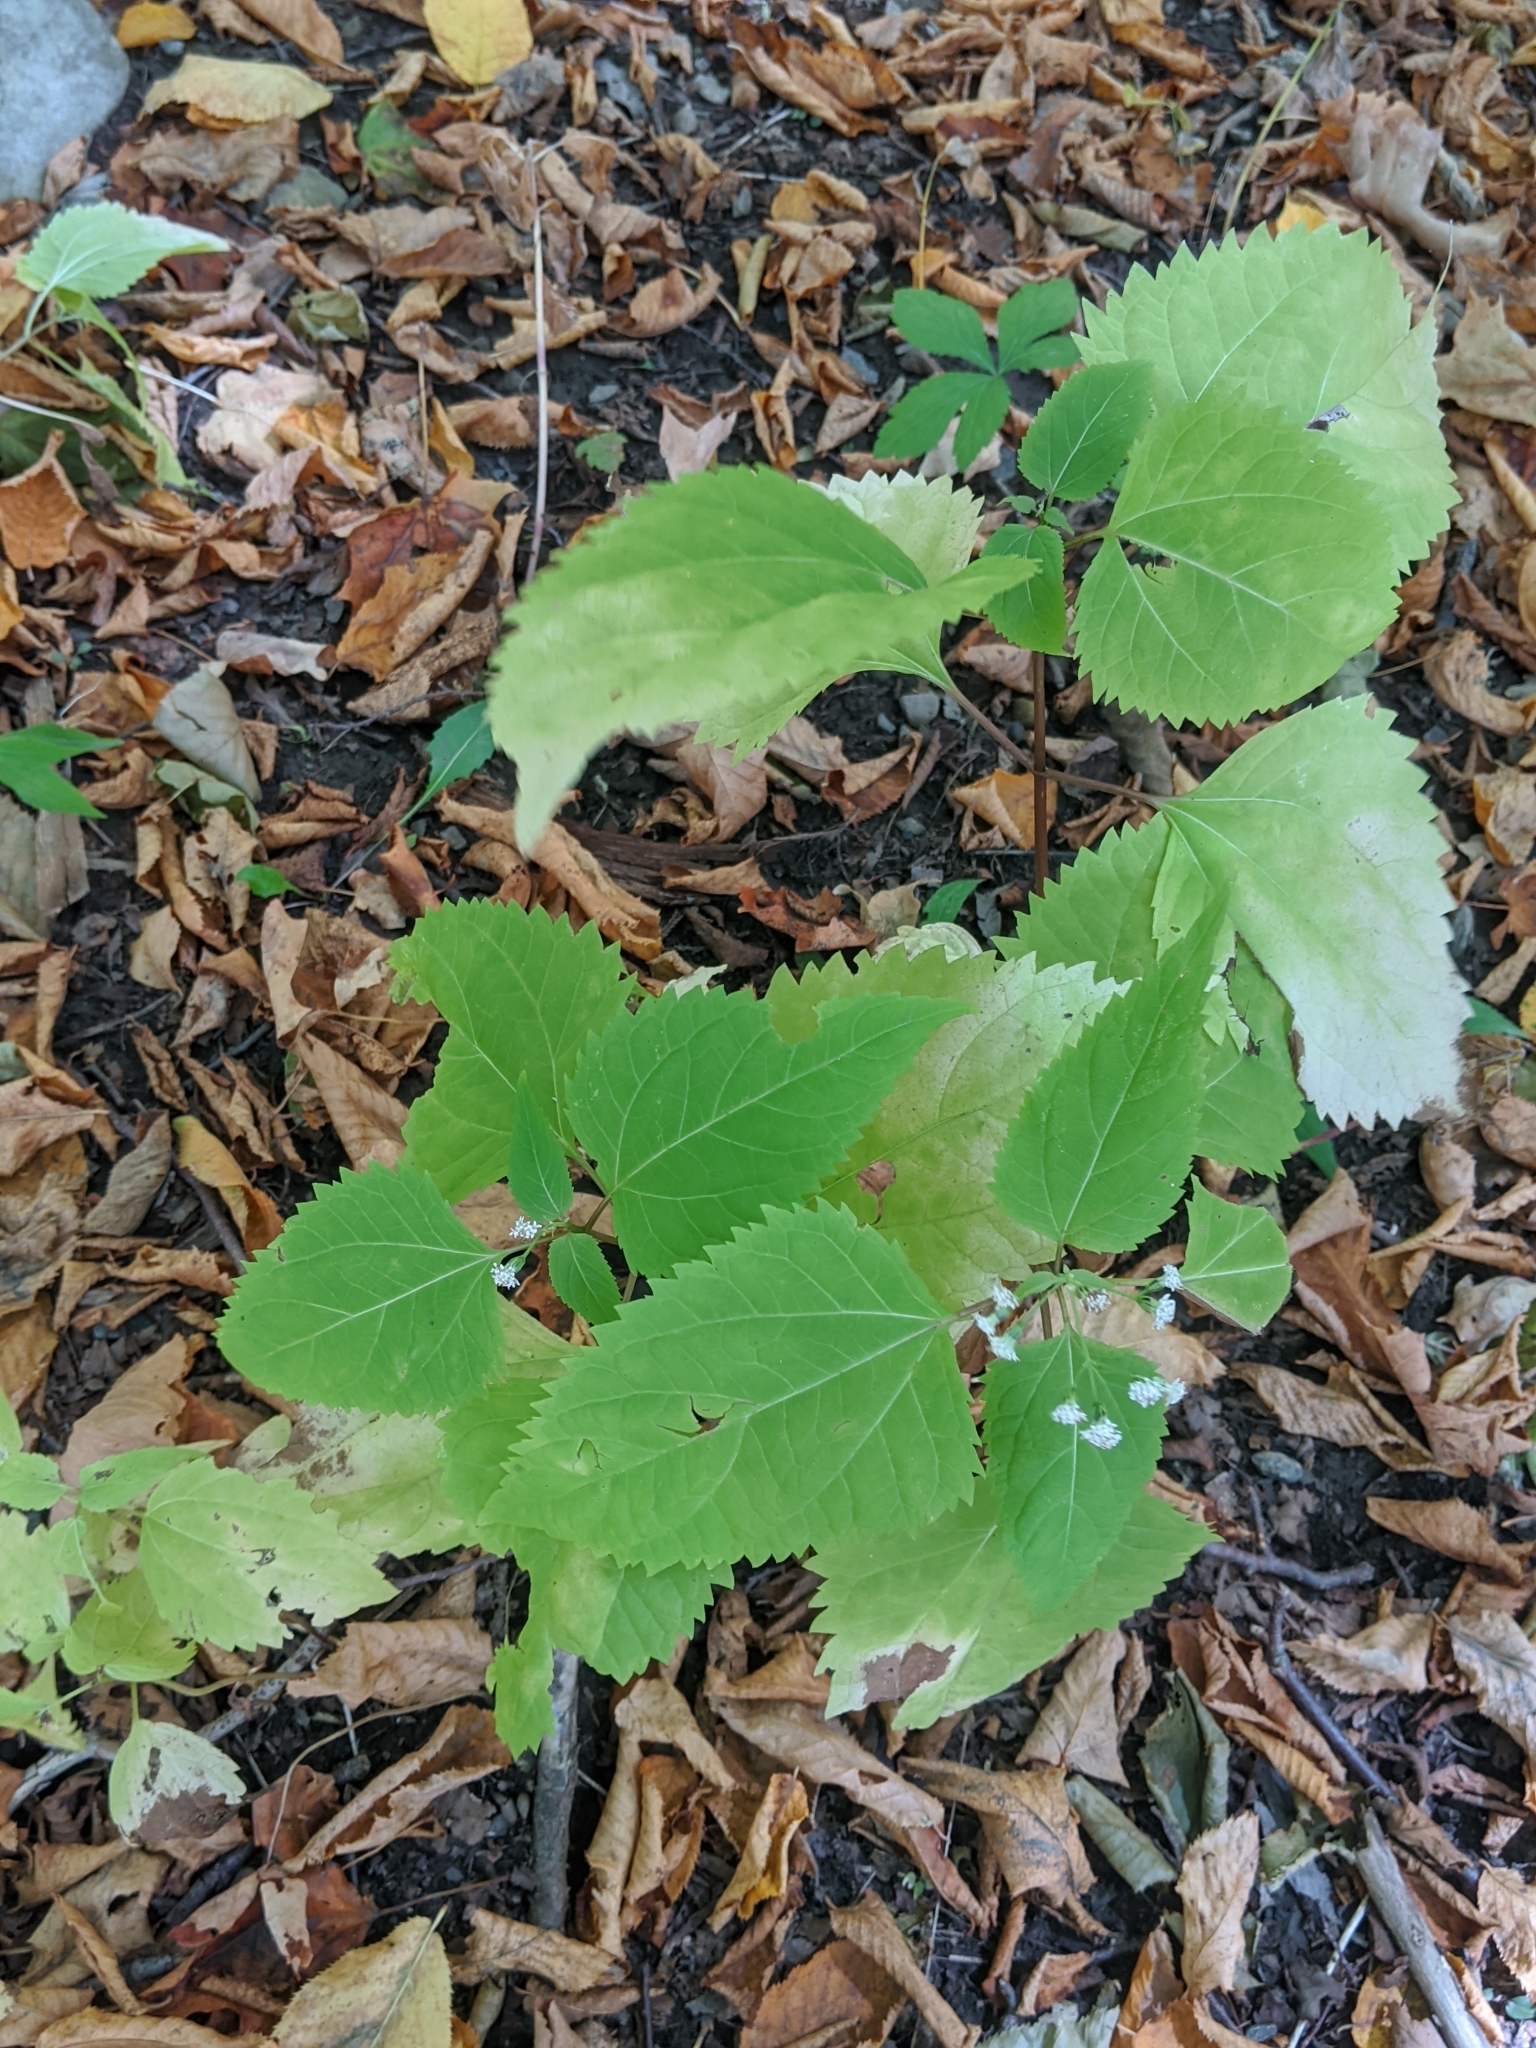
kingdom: Plantae
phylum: Tracheophyta
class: Magnoliopsida
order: Asterales
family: Asteraceae
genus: Ageratina
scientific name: Ageratina altissima
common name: White snakeroot
